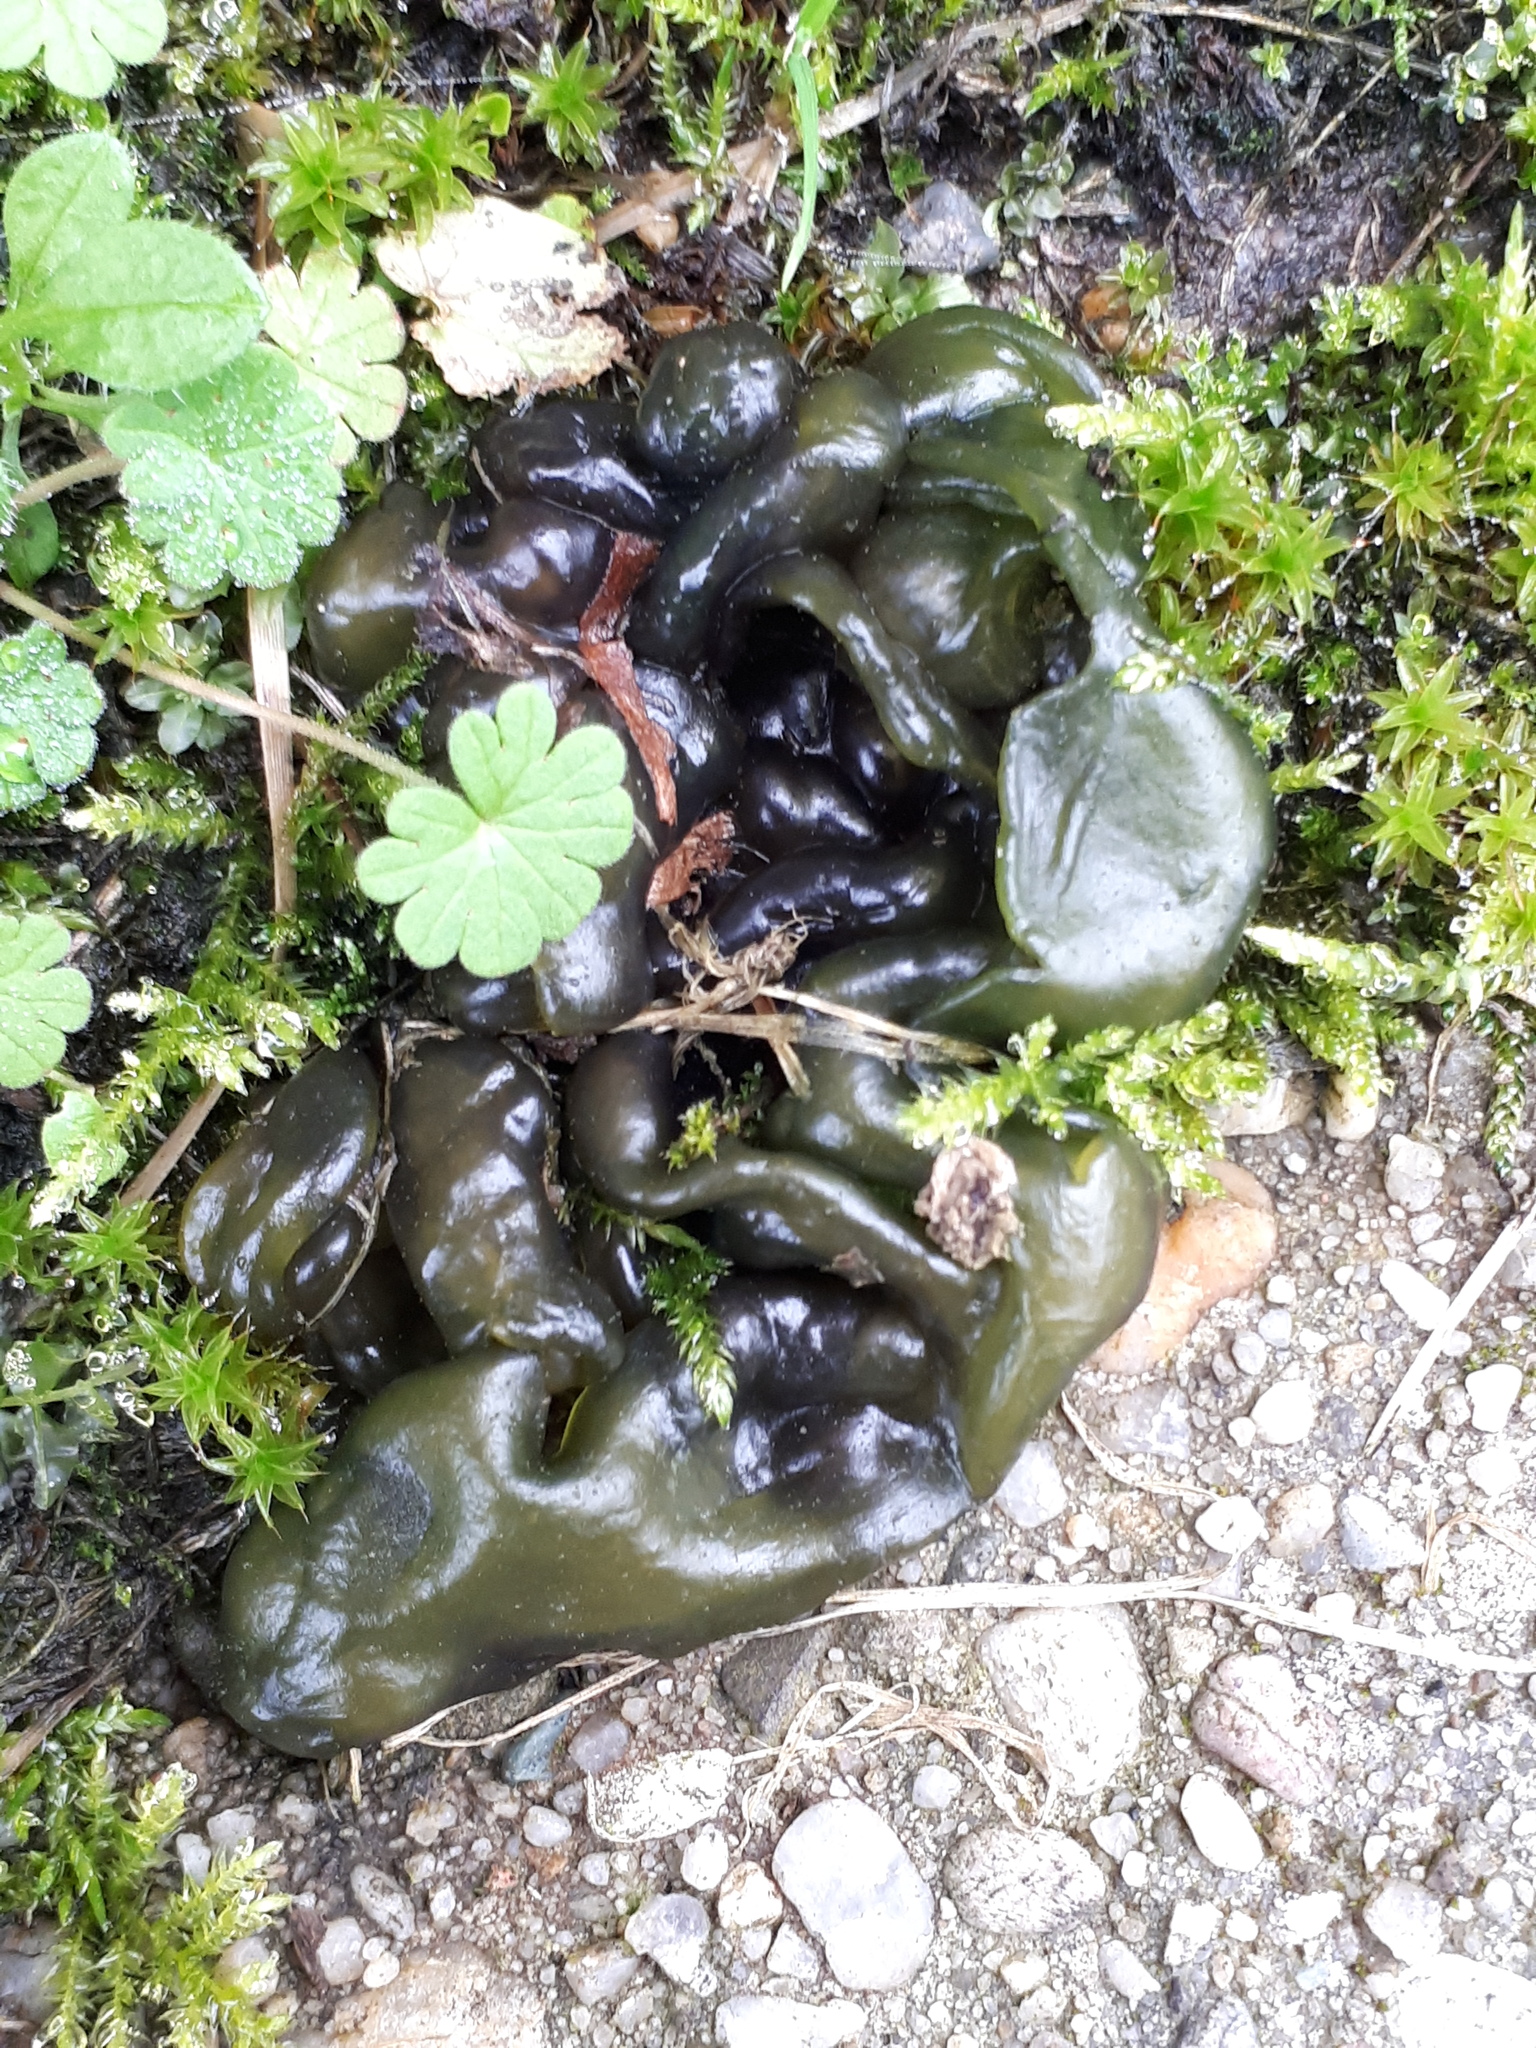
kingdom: Bacteria
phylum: Cyanobacteria
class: Cyanobacteriia
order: Cyanobacteriales
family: Nostocaceae
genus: Nostoc
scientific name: Nostoc commune
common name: Star jelly
